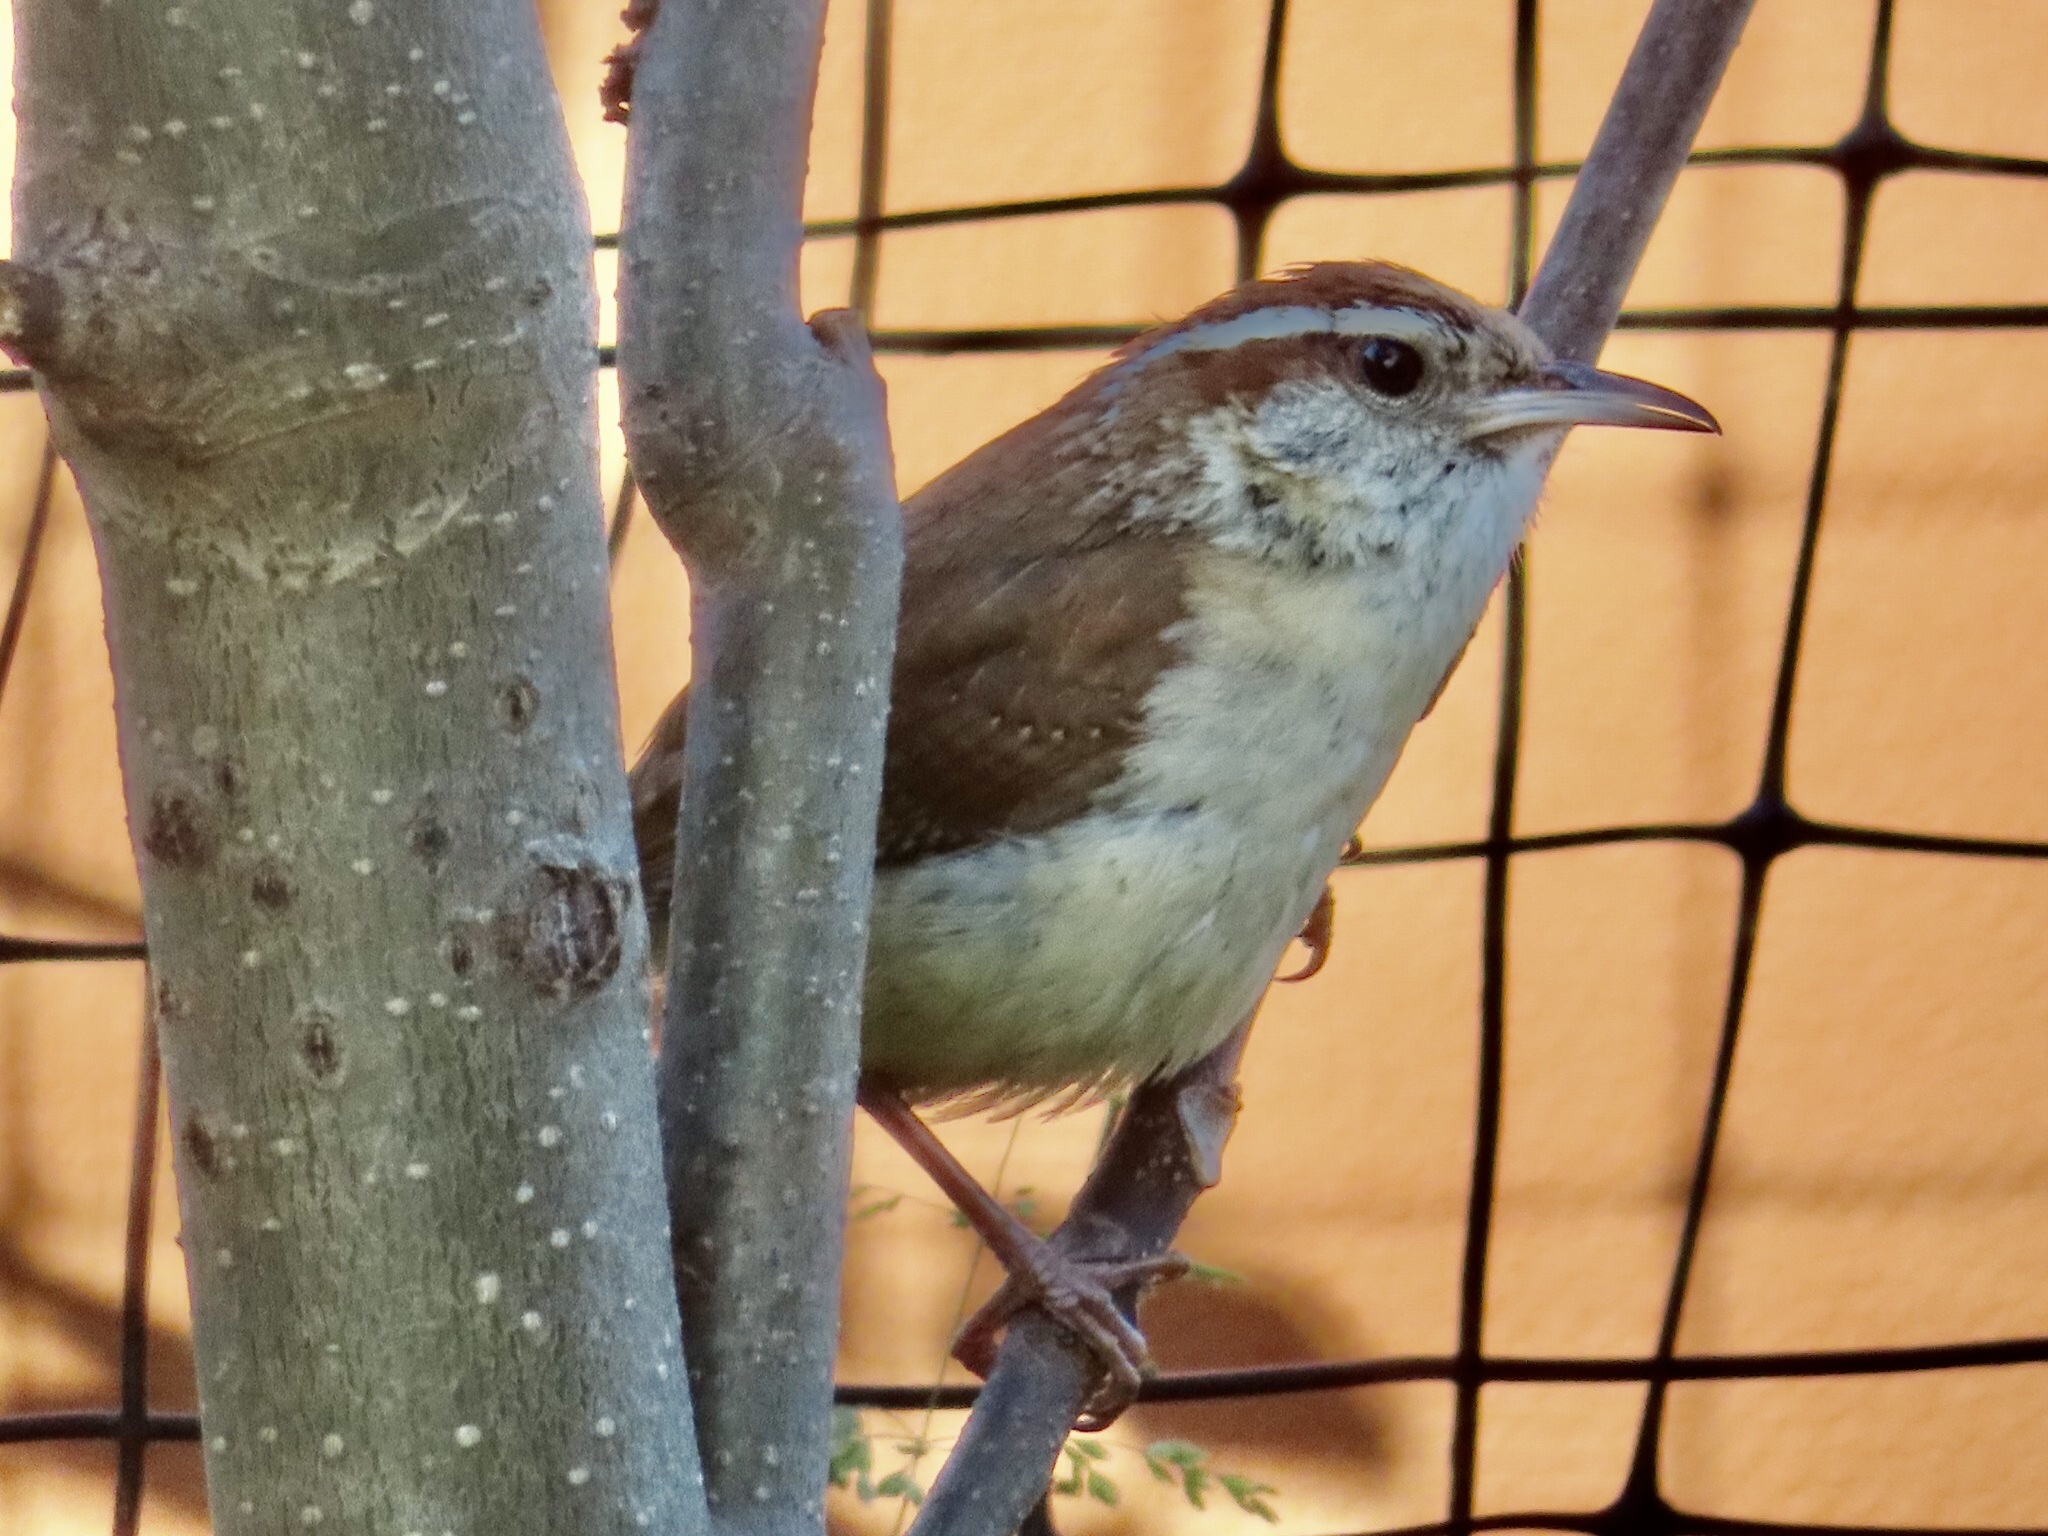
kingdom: Animalia
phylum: Chordata
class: Aves
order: Passeriformes
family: Troglodytidae
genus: Thryothorus
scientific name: Thryothorus ludovicianus
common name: Carolina wren
